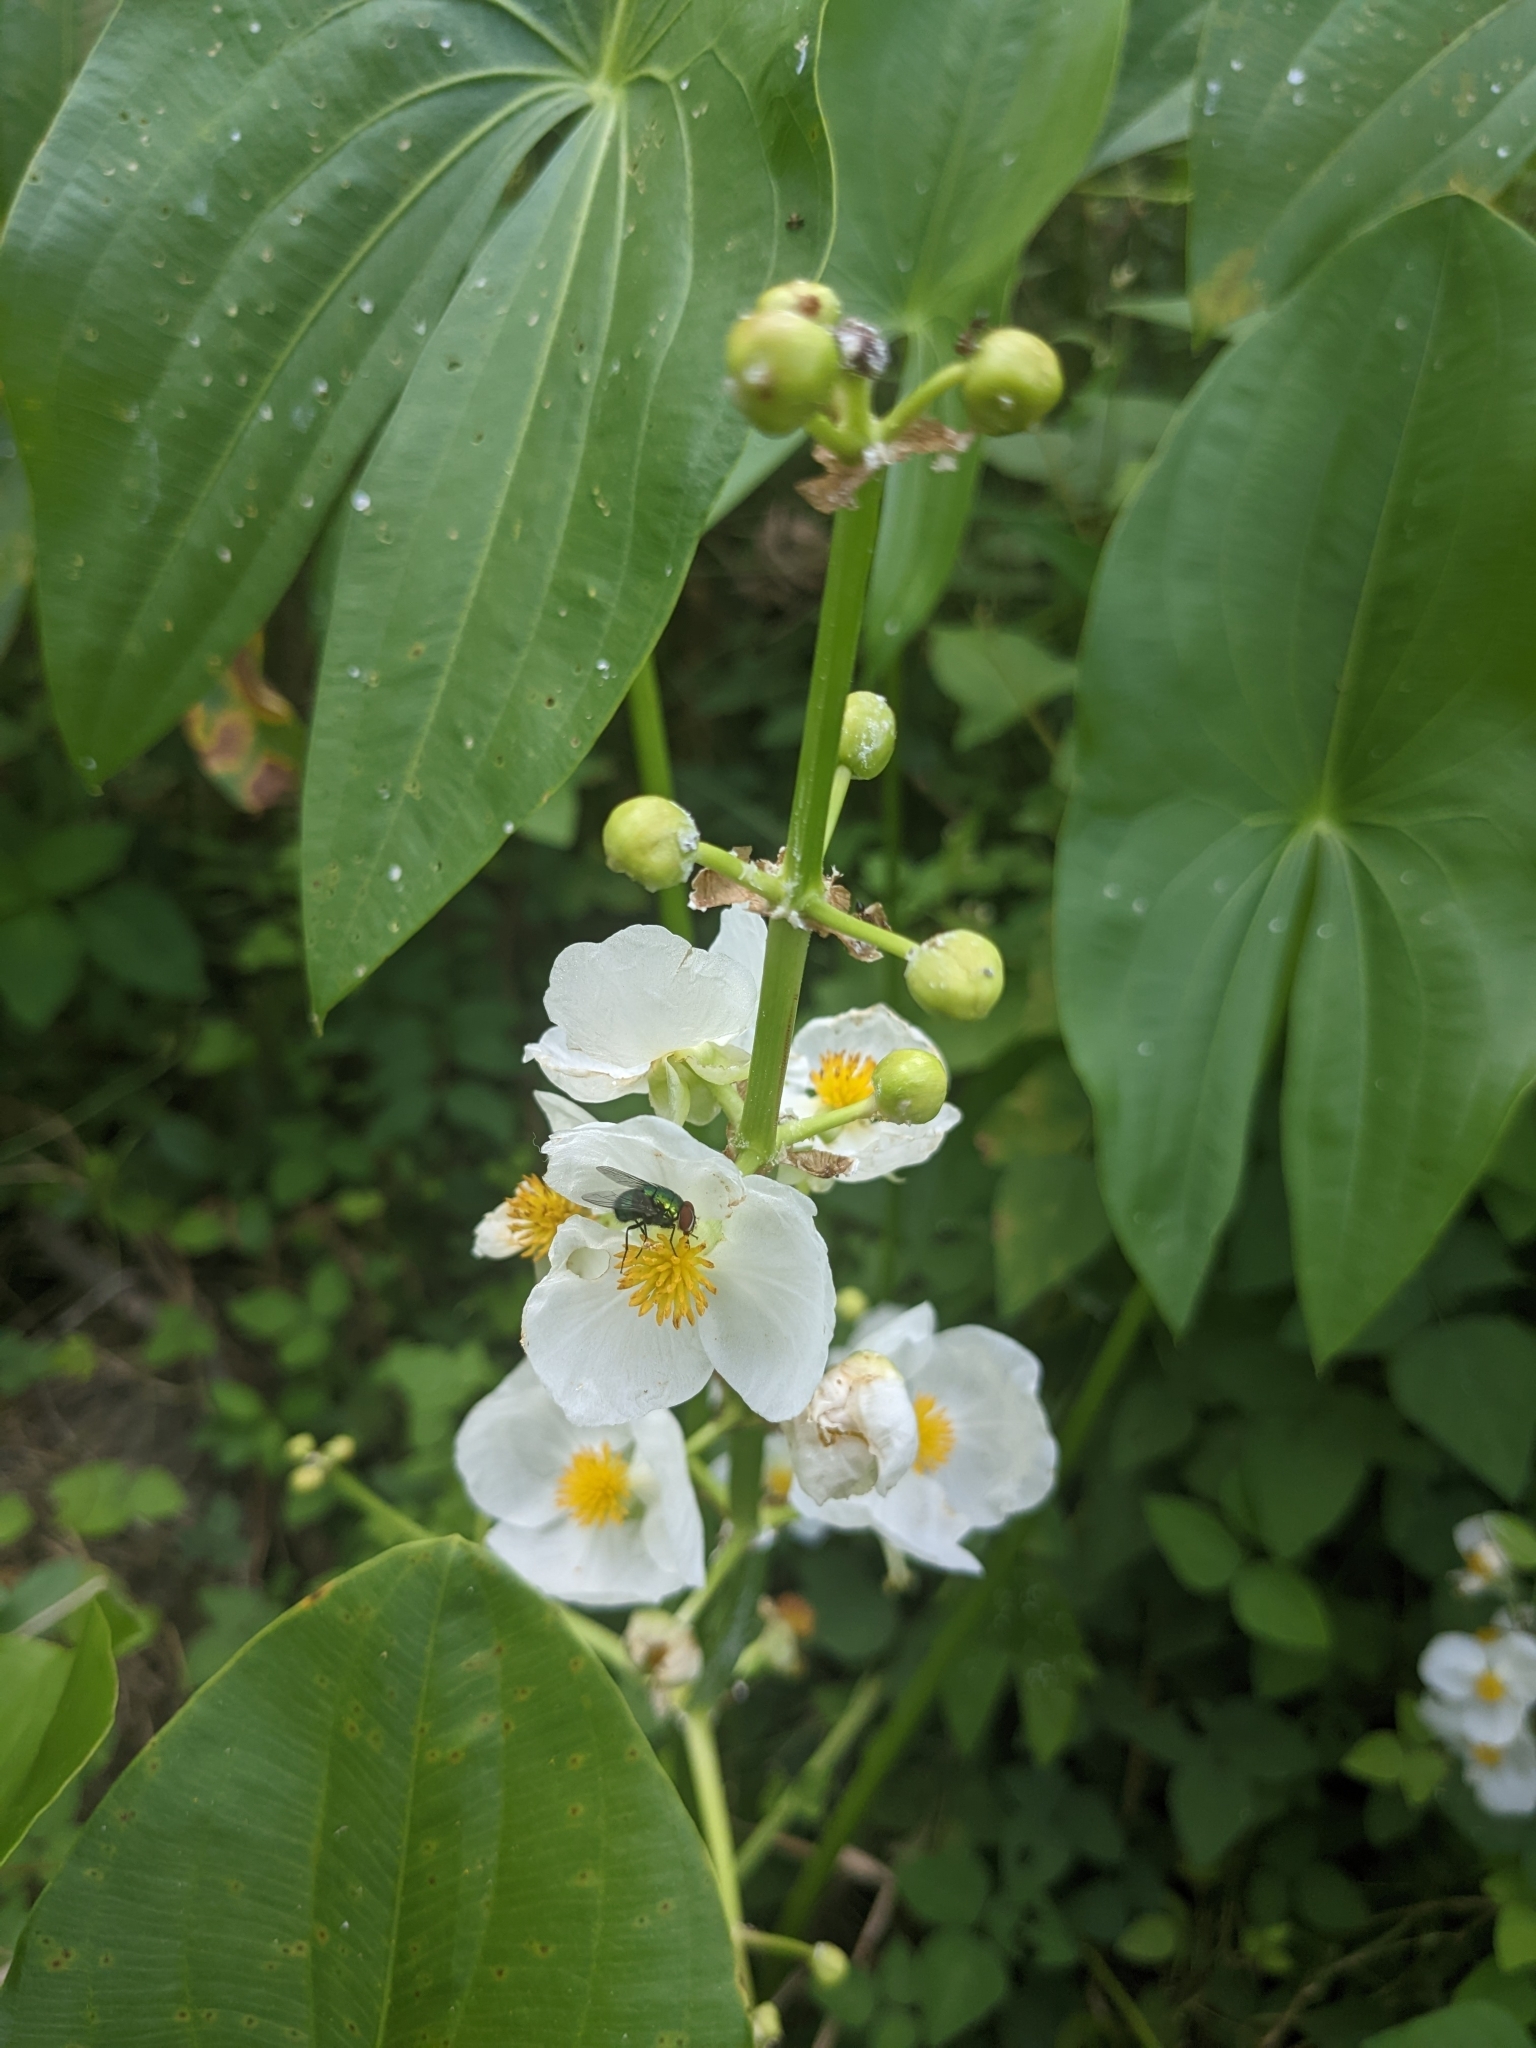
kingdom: Plantae
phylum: Tracheophyta
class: Liliopsida
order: Alismatales
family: Alismataceae
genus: Sagittaria
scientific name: Sagittaria latifolia
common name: Duck-potato
